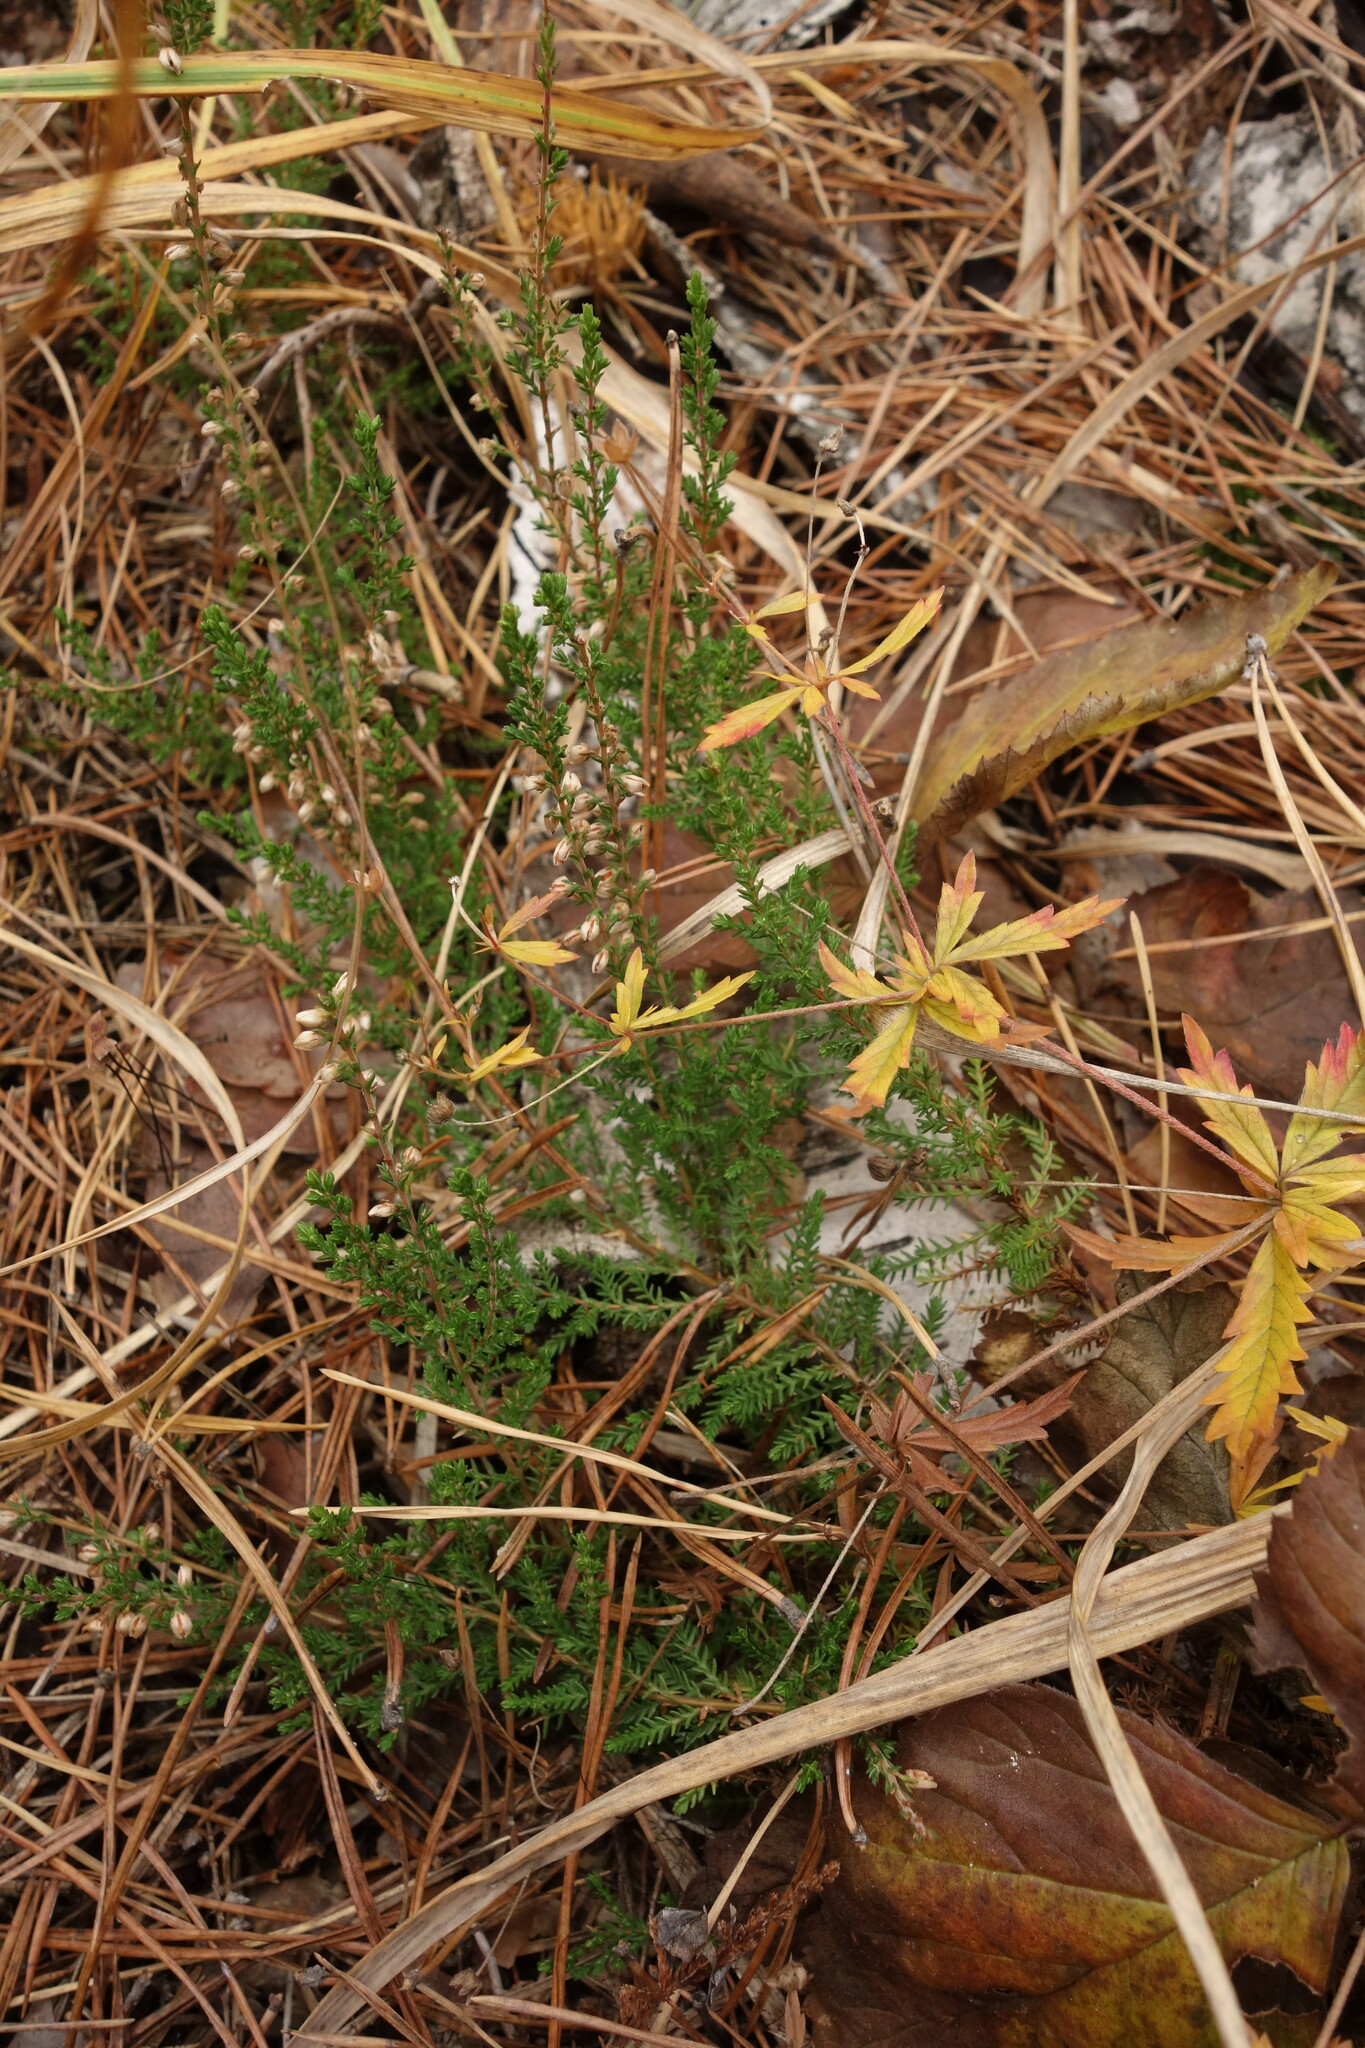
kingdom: Plantae
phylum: Tracheophyta
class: Magnoliopsida
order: Ericales
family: Ericaceae
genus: Calluna
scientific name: Calluna vulgaris
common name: Heather
